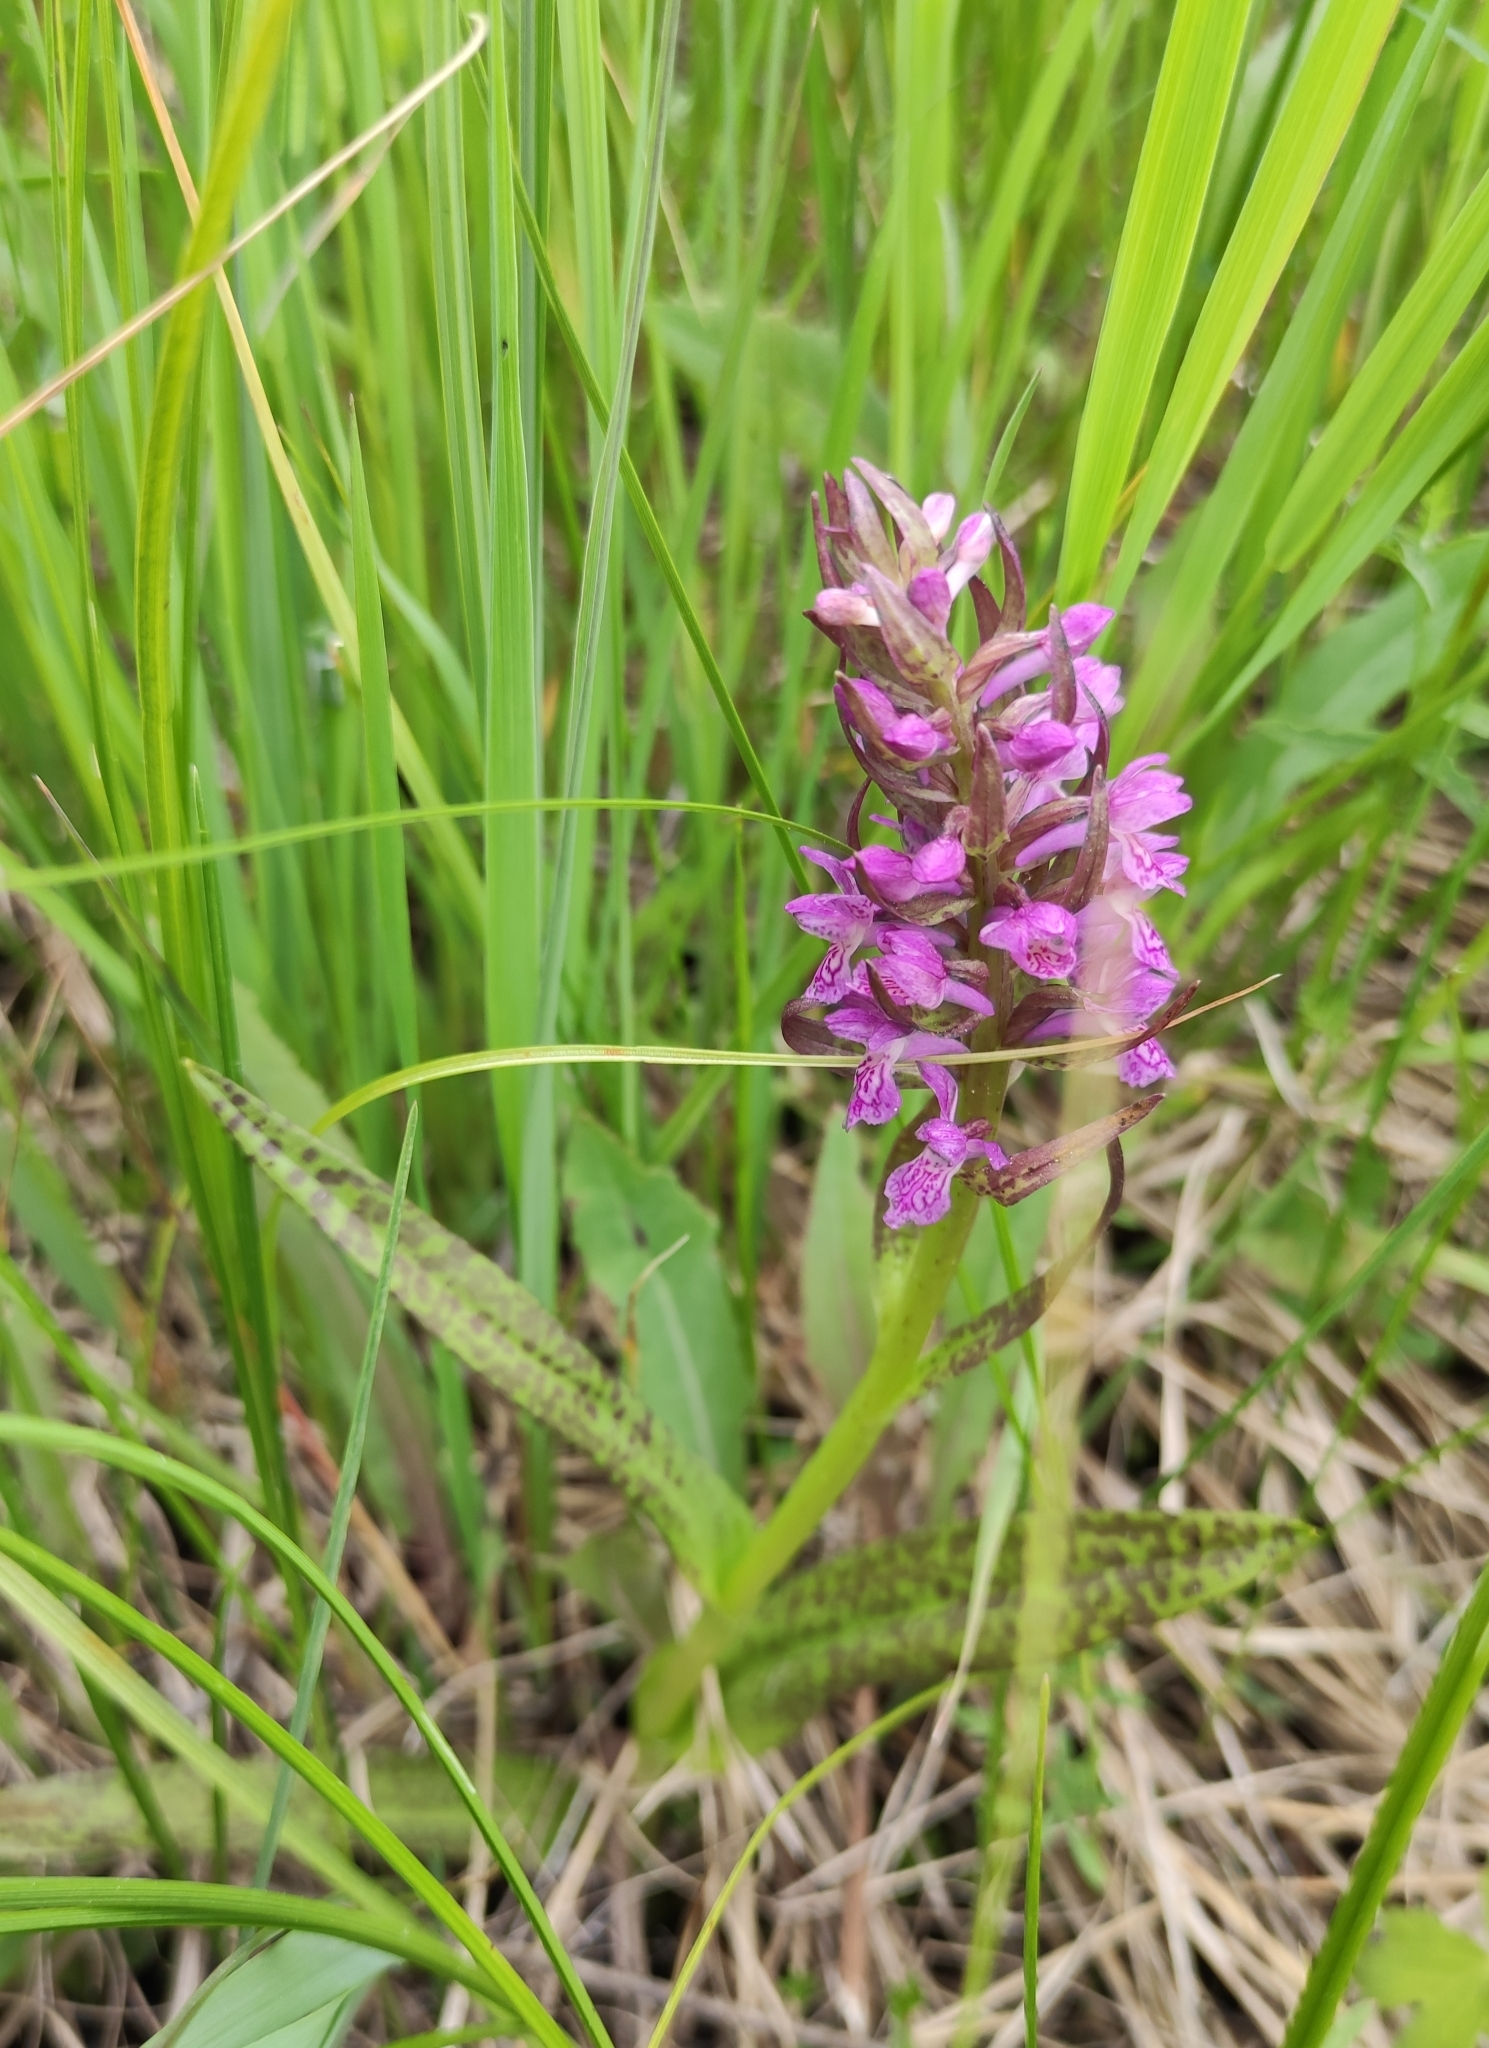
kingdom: Plantae
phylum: Tracheophyta
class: Liliopsida
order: Asparagales
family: Orchidaceae
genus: Dactylorhiza
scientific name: Dactylorhiza incarnata
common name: Early marsh-orchid
